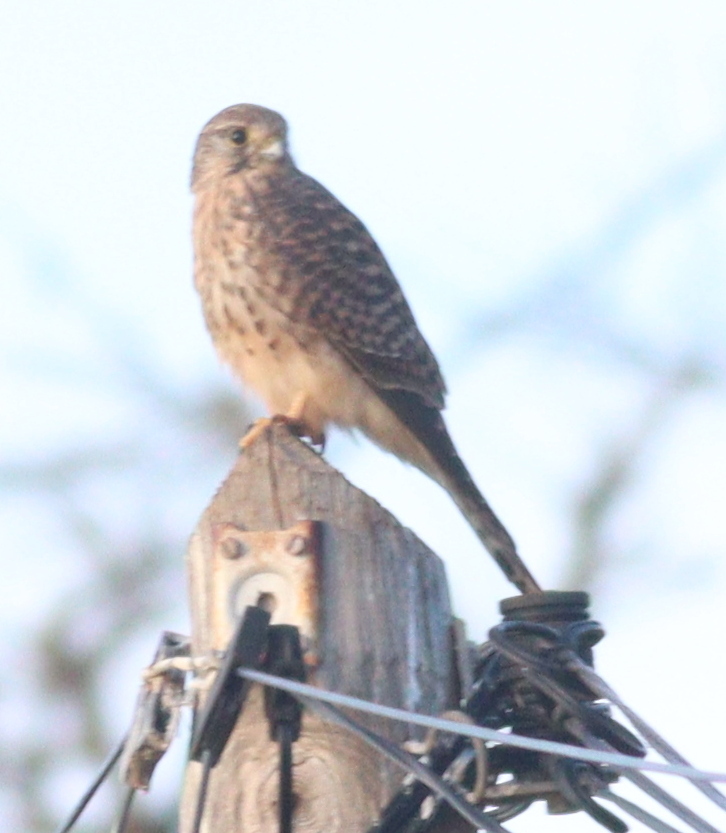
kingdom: Animalia
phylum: Chordata
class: Aves
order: Falconiformes
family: Falconidae
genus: Falco
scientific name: Falco tinnunculus
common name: Common kestrel
